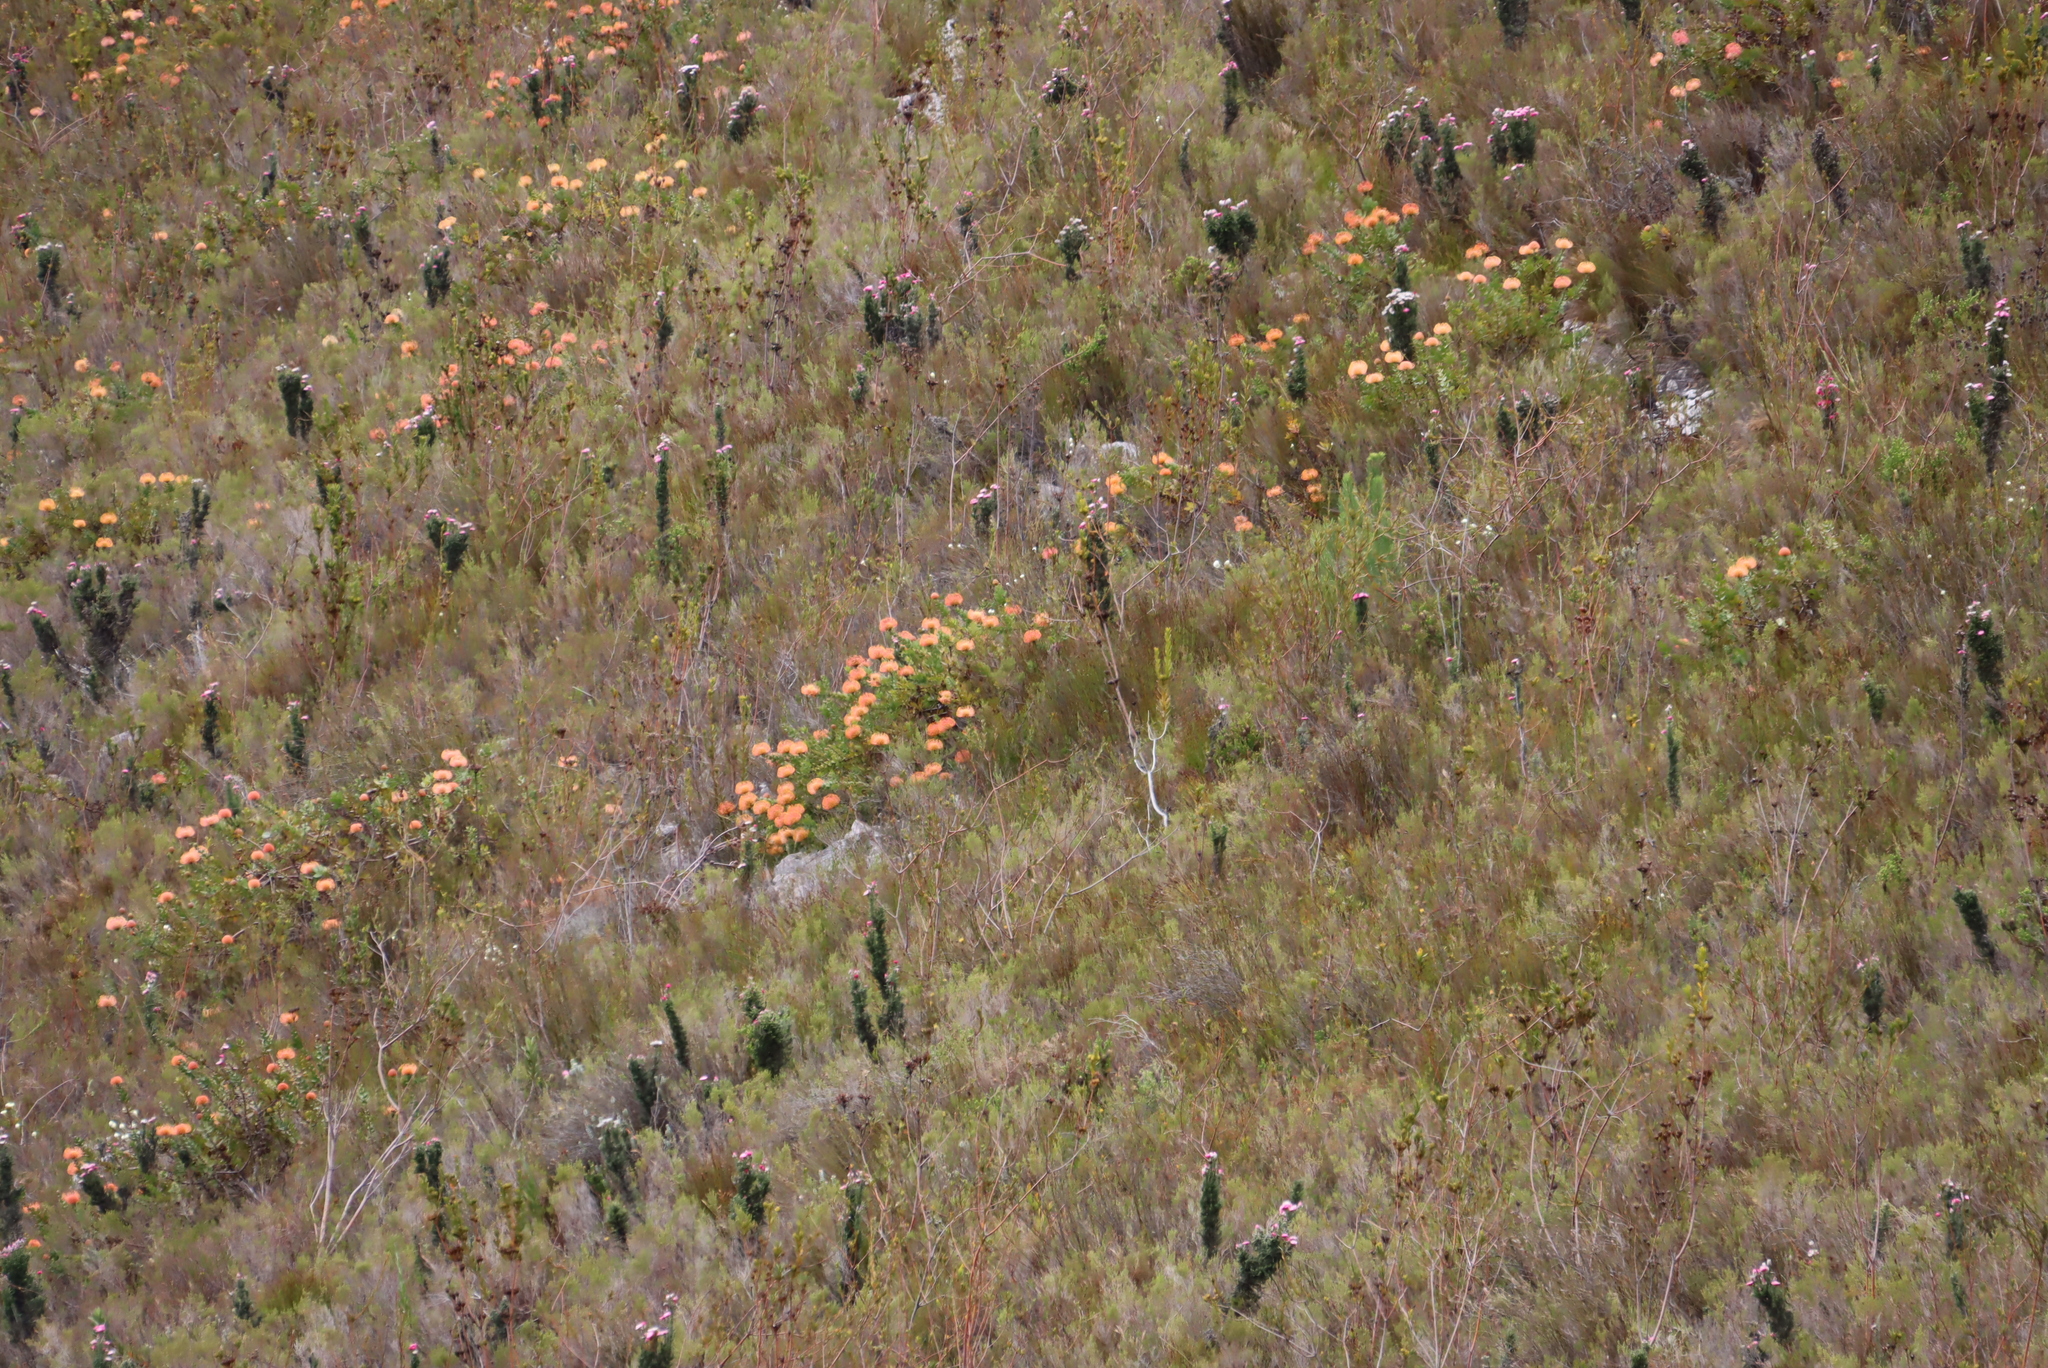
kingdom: Plantae
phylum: Tracheophyta
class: Magnoliopsida
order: Proteales
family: Proteaceae
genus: Leucospermum
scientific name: Leucospermum cordifolium
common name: Red pincushion-protea
